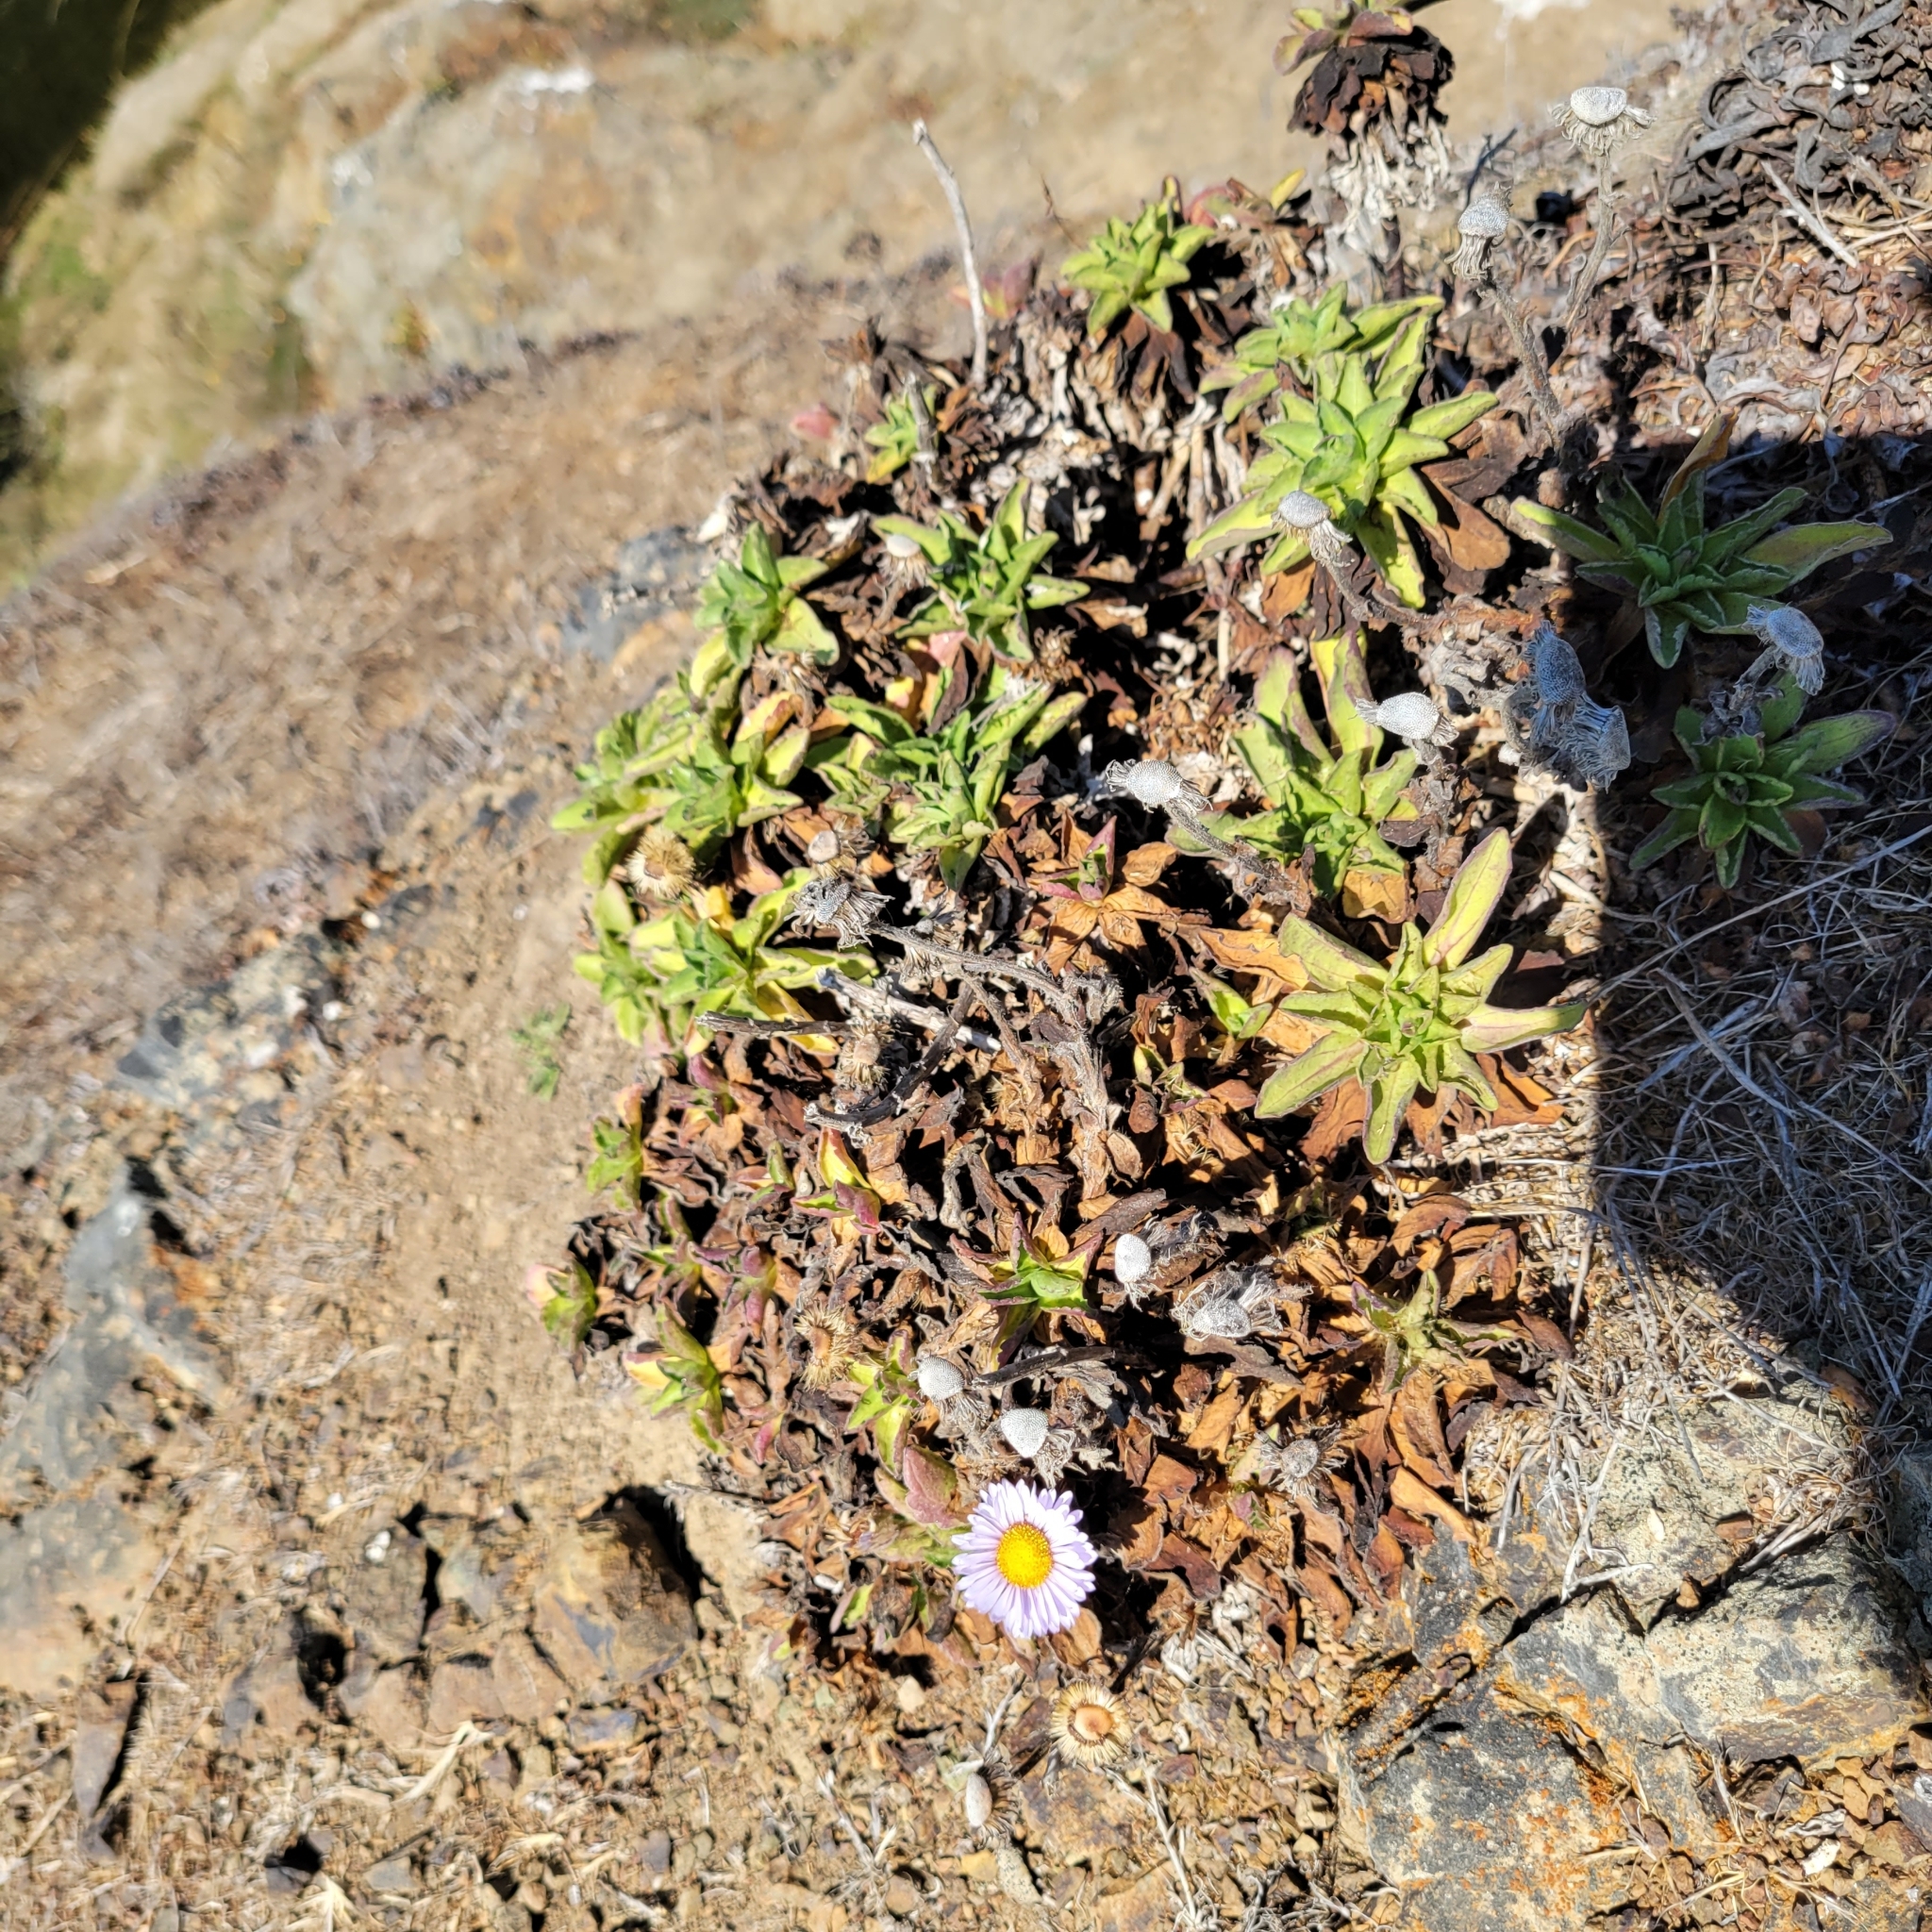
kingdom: Plantae
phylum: Tracheophyta
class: Magnoliopsida
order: Asterales
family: Asteraceae
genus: Erigeron
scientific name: Erigeron glaucus
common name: Seaside daisy
